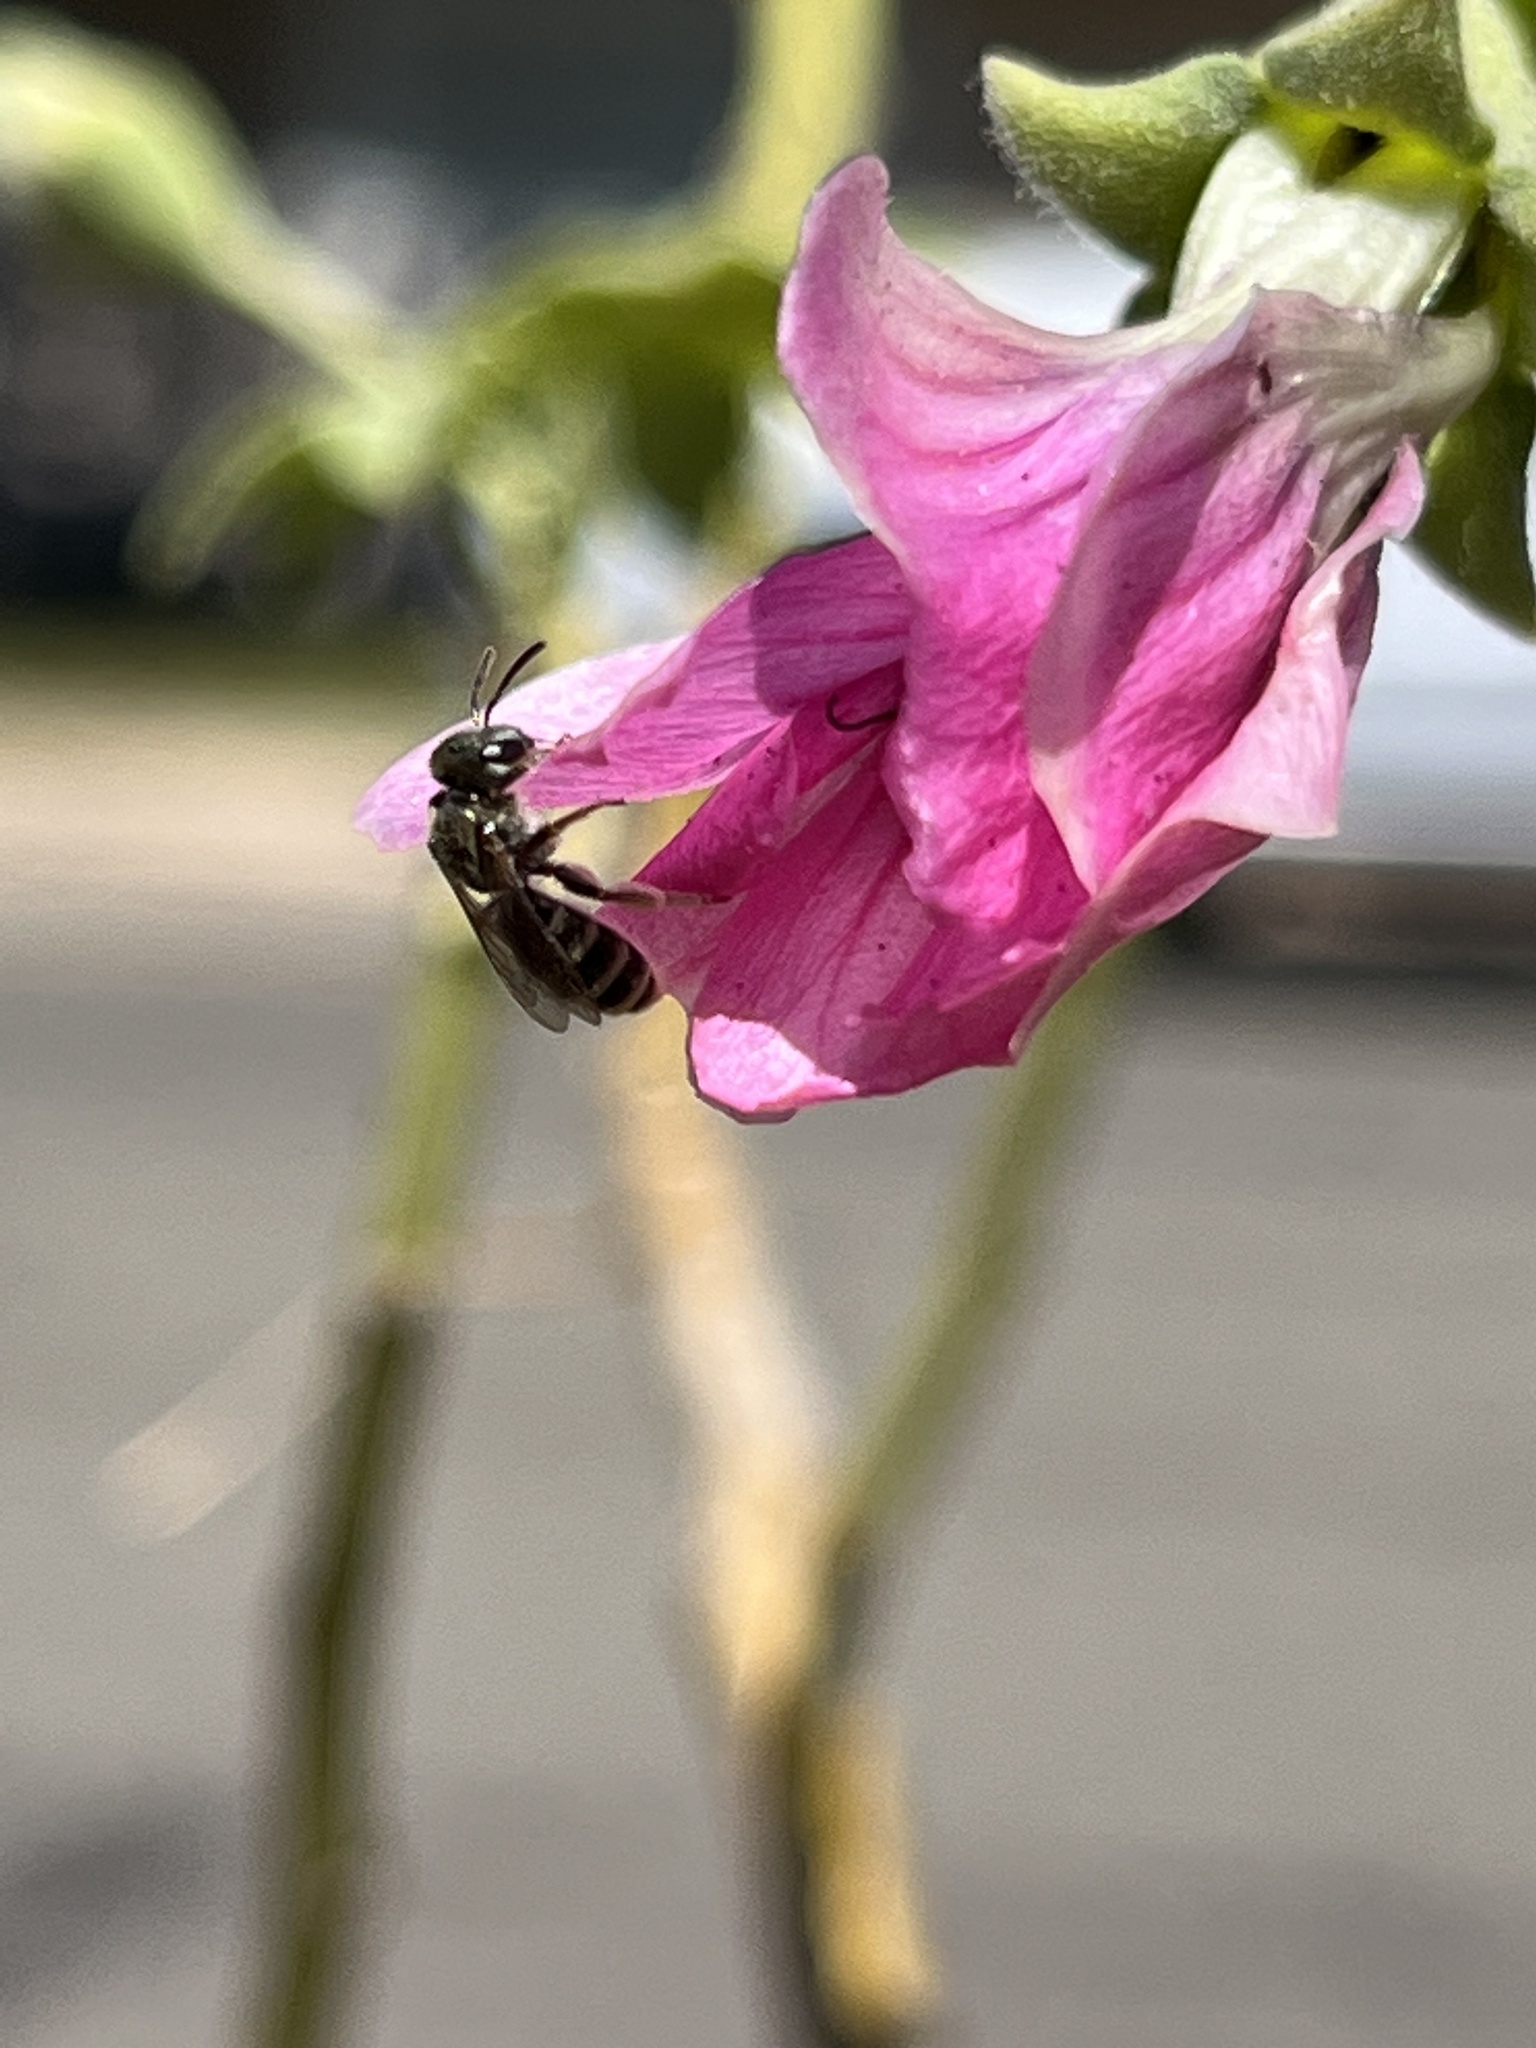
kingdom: Animalia
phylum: Arthropoda
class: Insecta
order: Hymenoptera
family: Halictidae
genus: Halictus
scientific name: Halictus tripartitus
